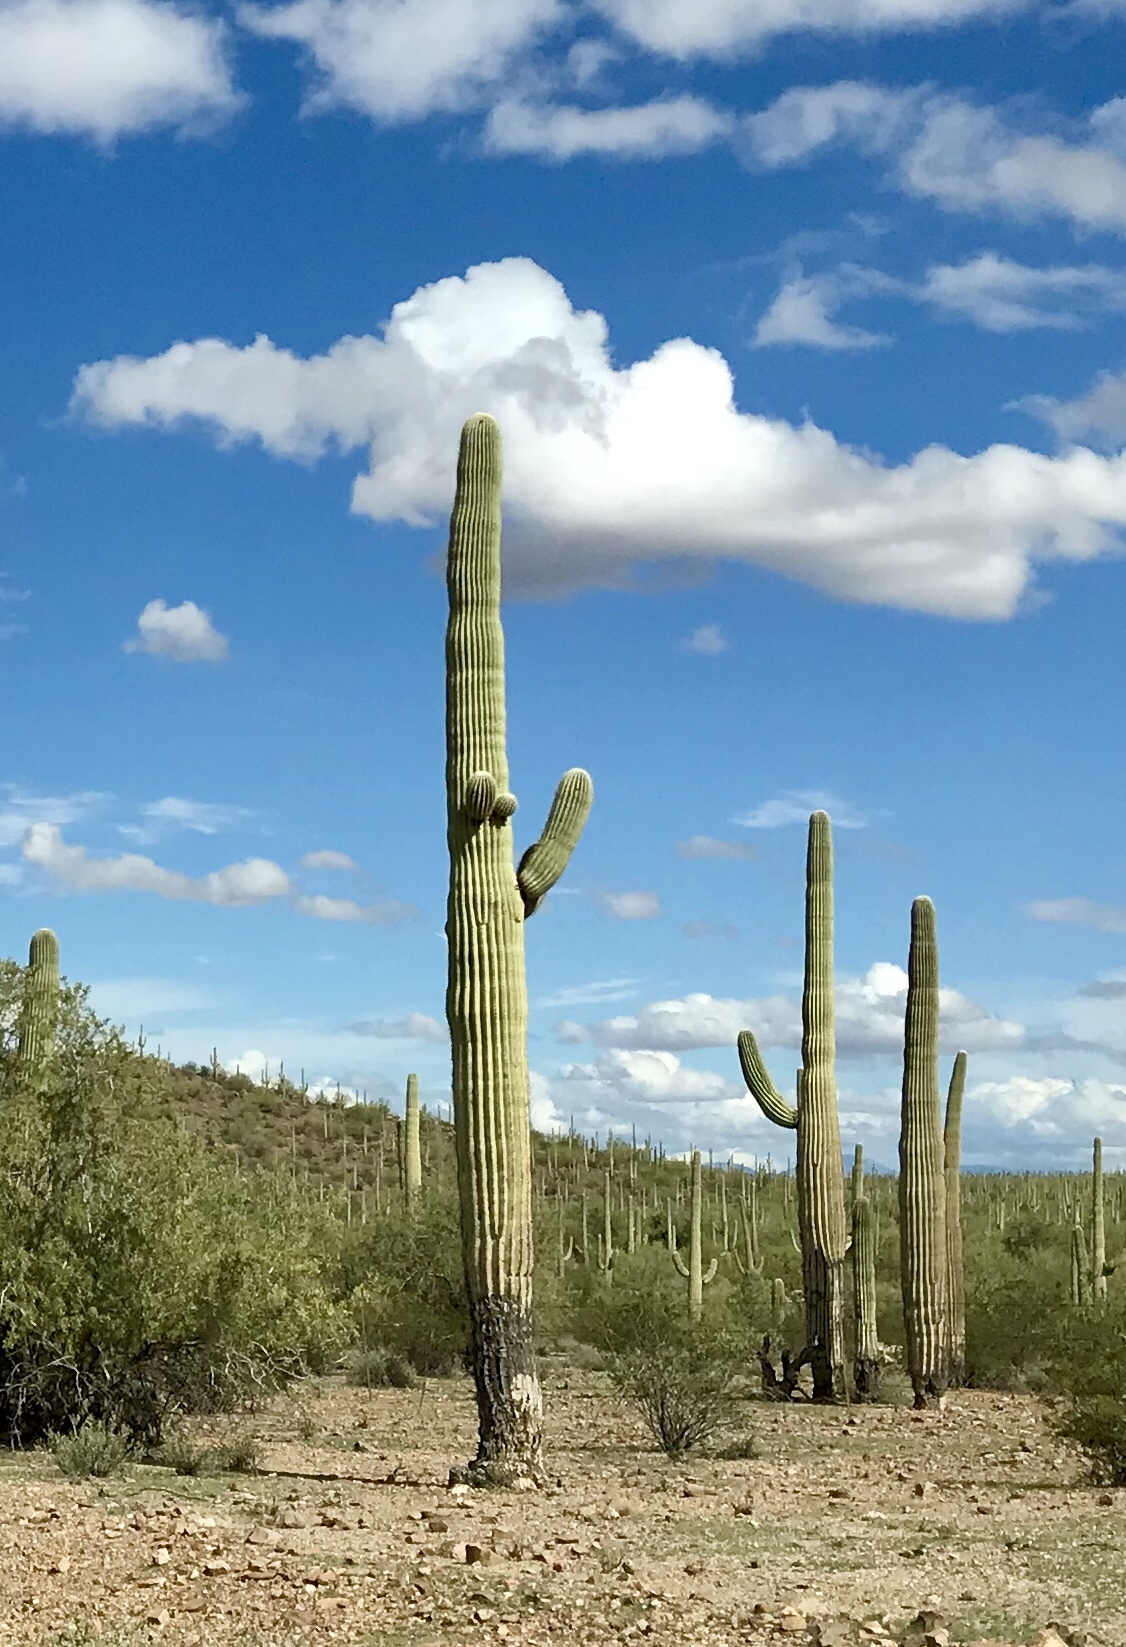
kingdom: Plantae
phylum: Tracheophyta
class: Magnoliopsida
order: Caryophyllales
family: Cactaceae
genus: Carnegiea
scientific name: Carnegiea gigantea
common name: Saguaro
